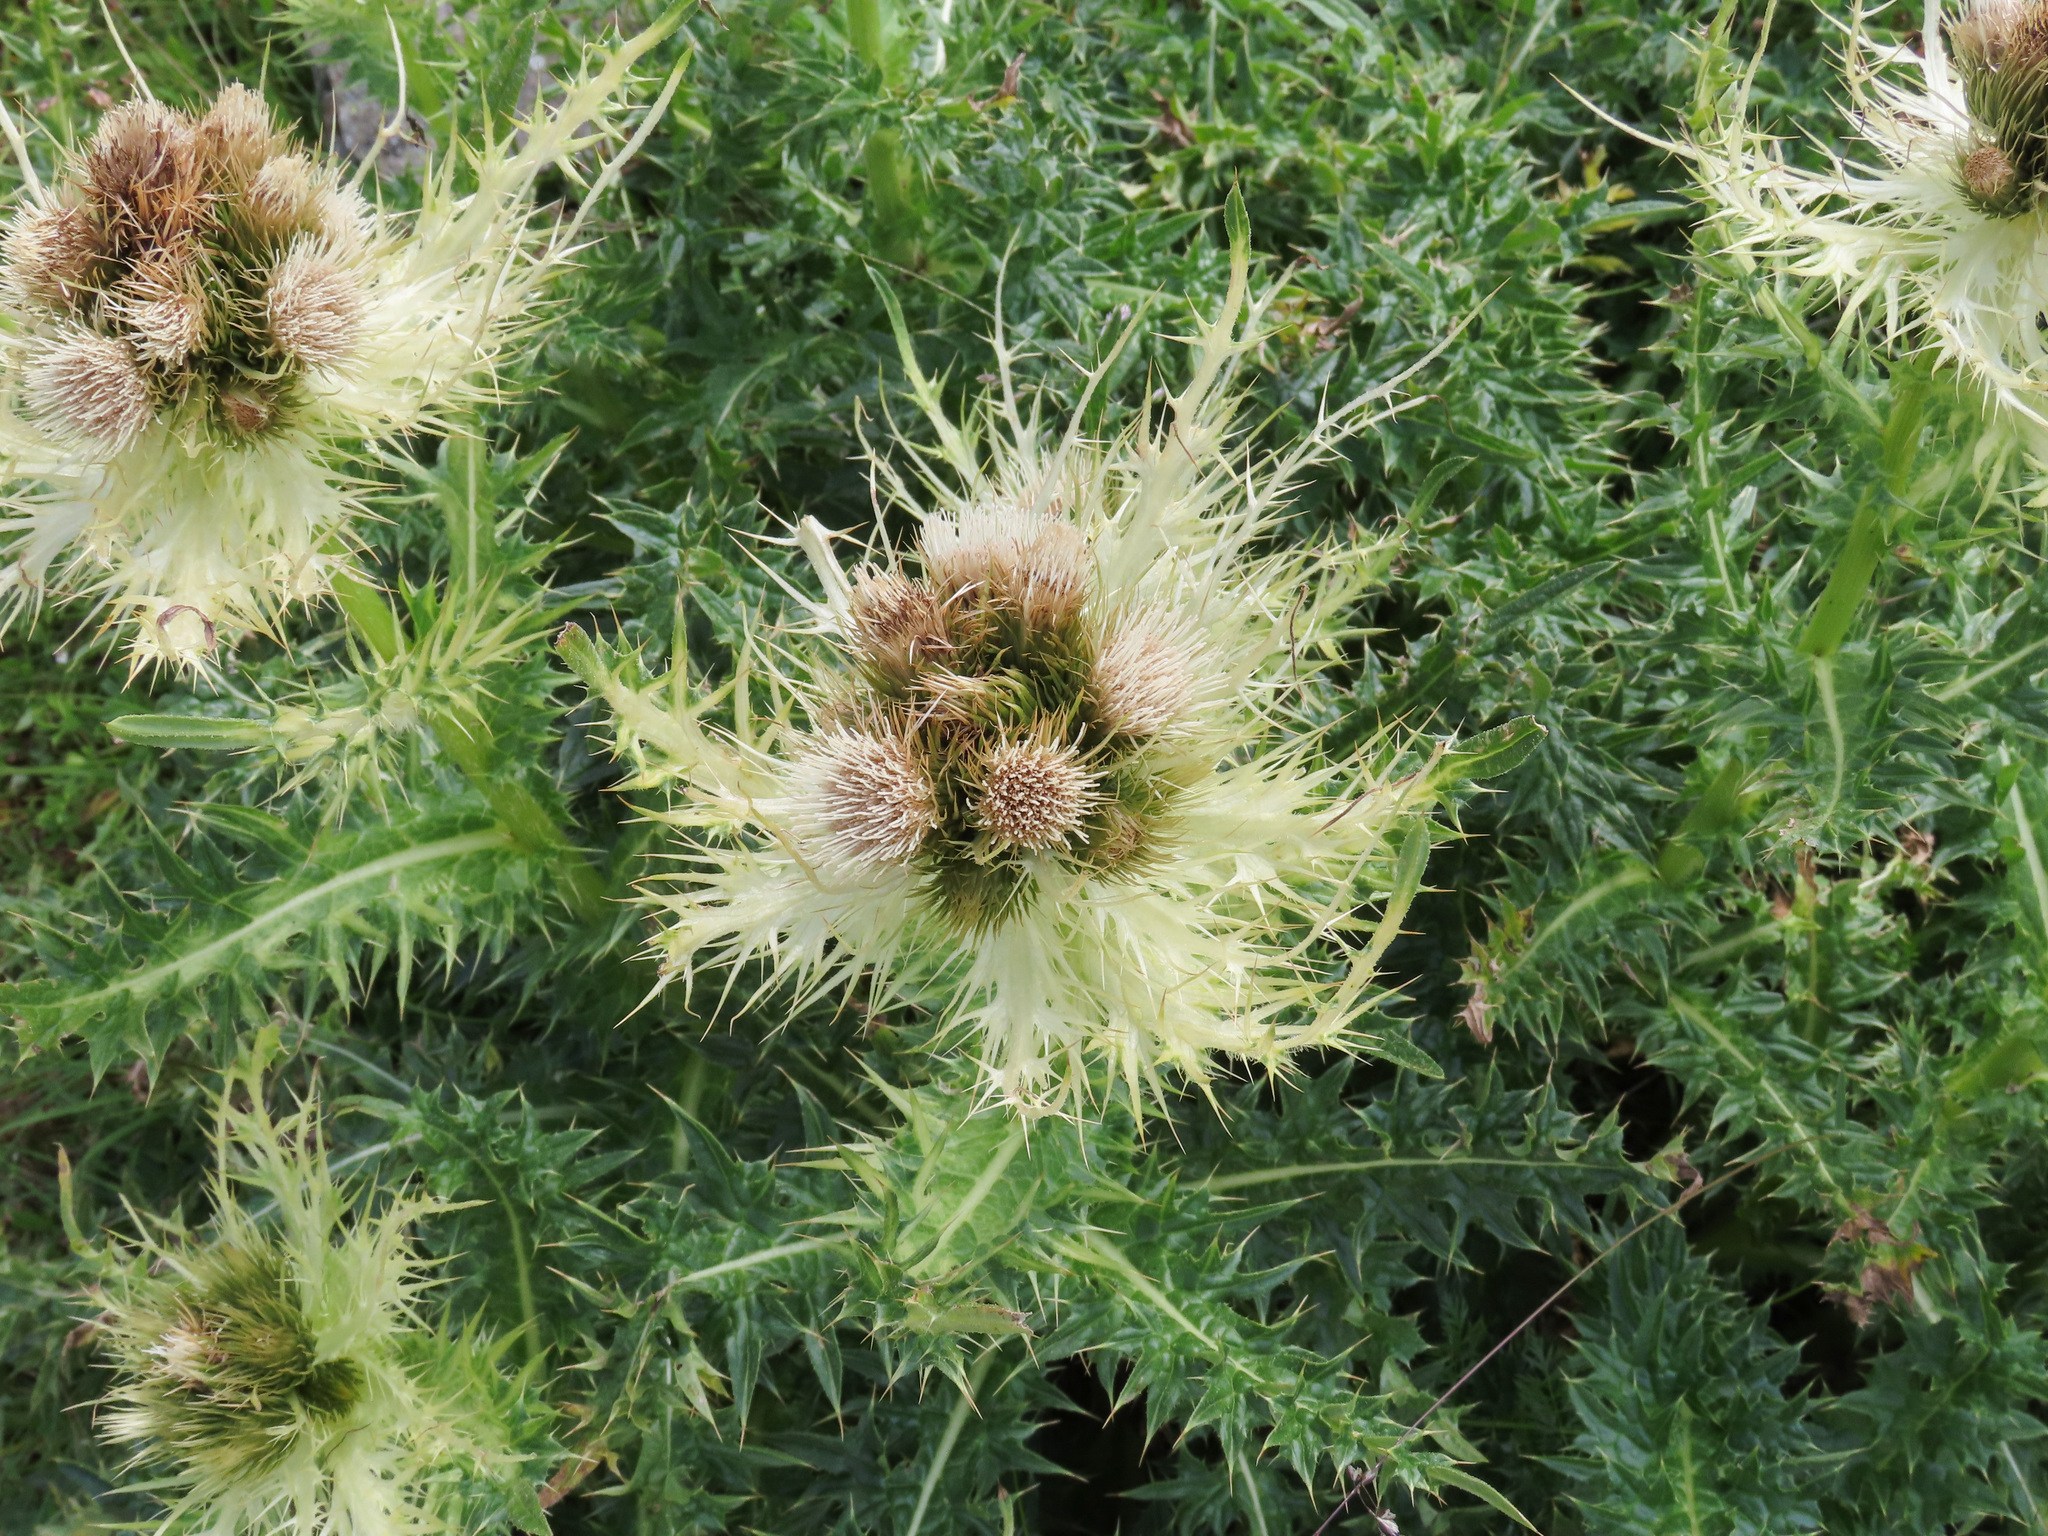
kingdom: Plantae
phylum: Tracheophyta
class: Magnoliopsida
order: Asterales
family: Asteraceae
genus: Cirsium
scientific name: Cirsium spinosissimum
